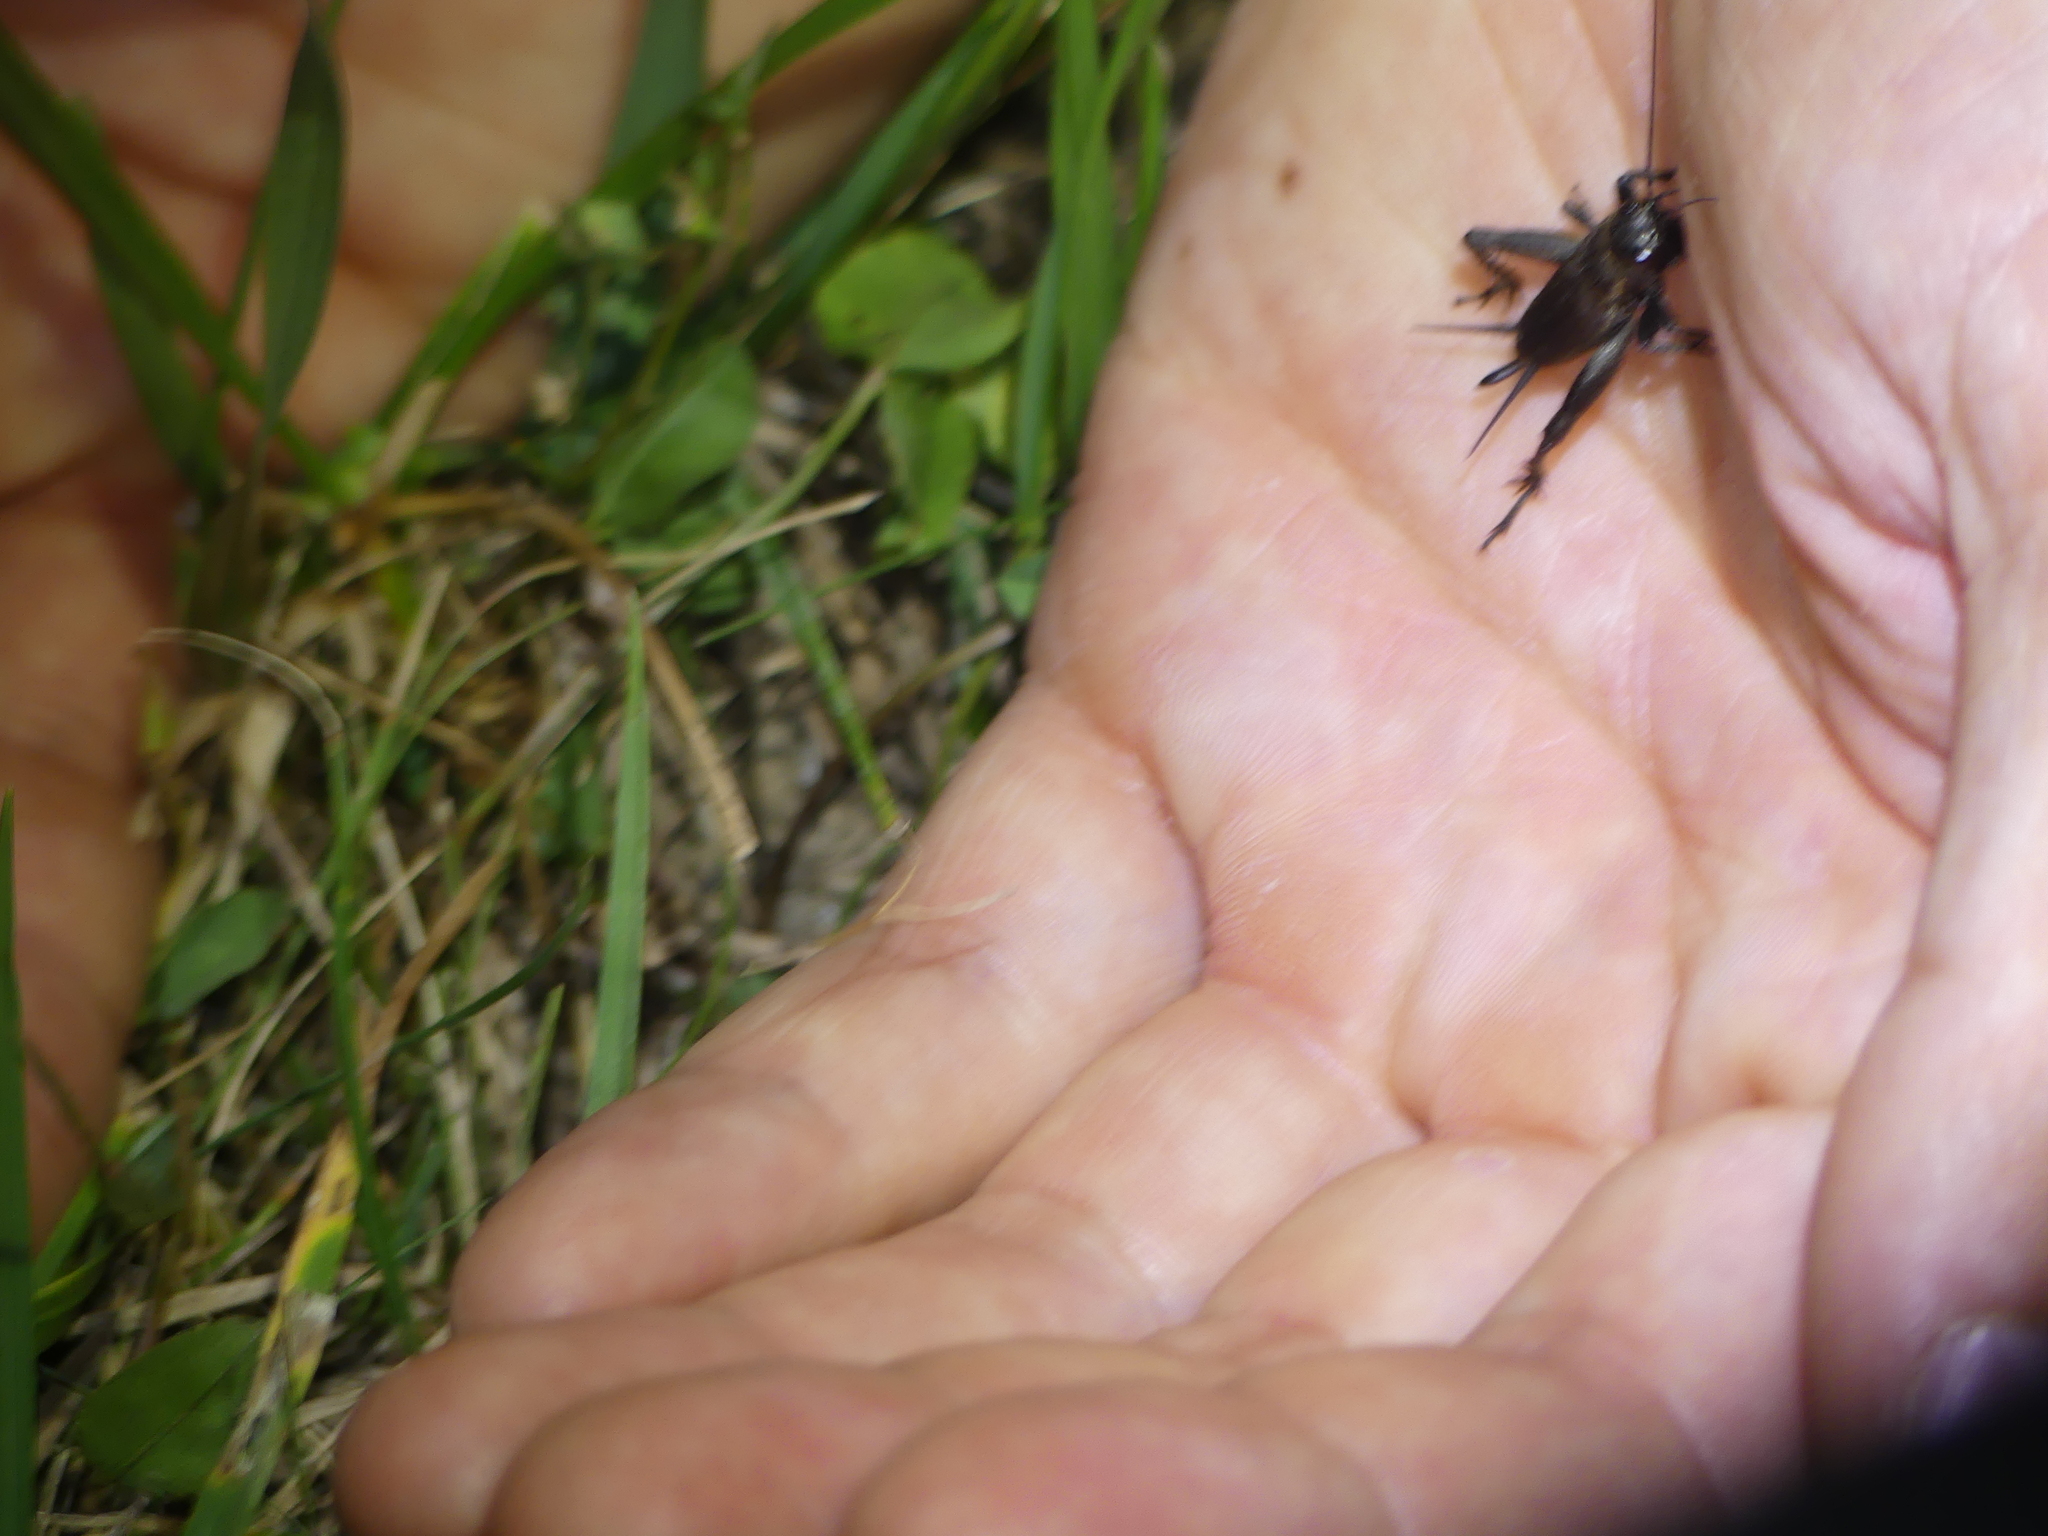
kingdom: Animalia
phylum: Arthropoda
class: Insecta
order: Orthoptera
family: Gryllidae
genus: Melanogryllus
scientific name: Melanogryllus desertus
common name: Desert cricket
